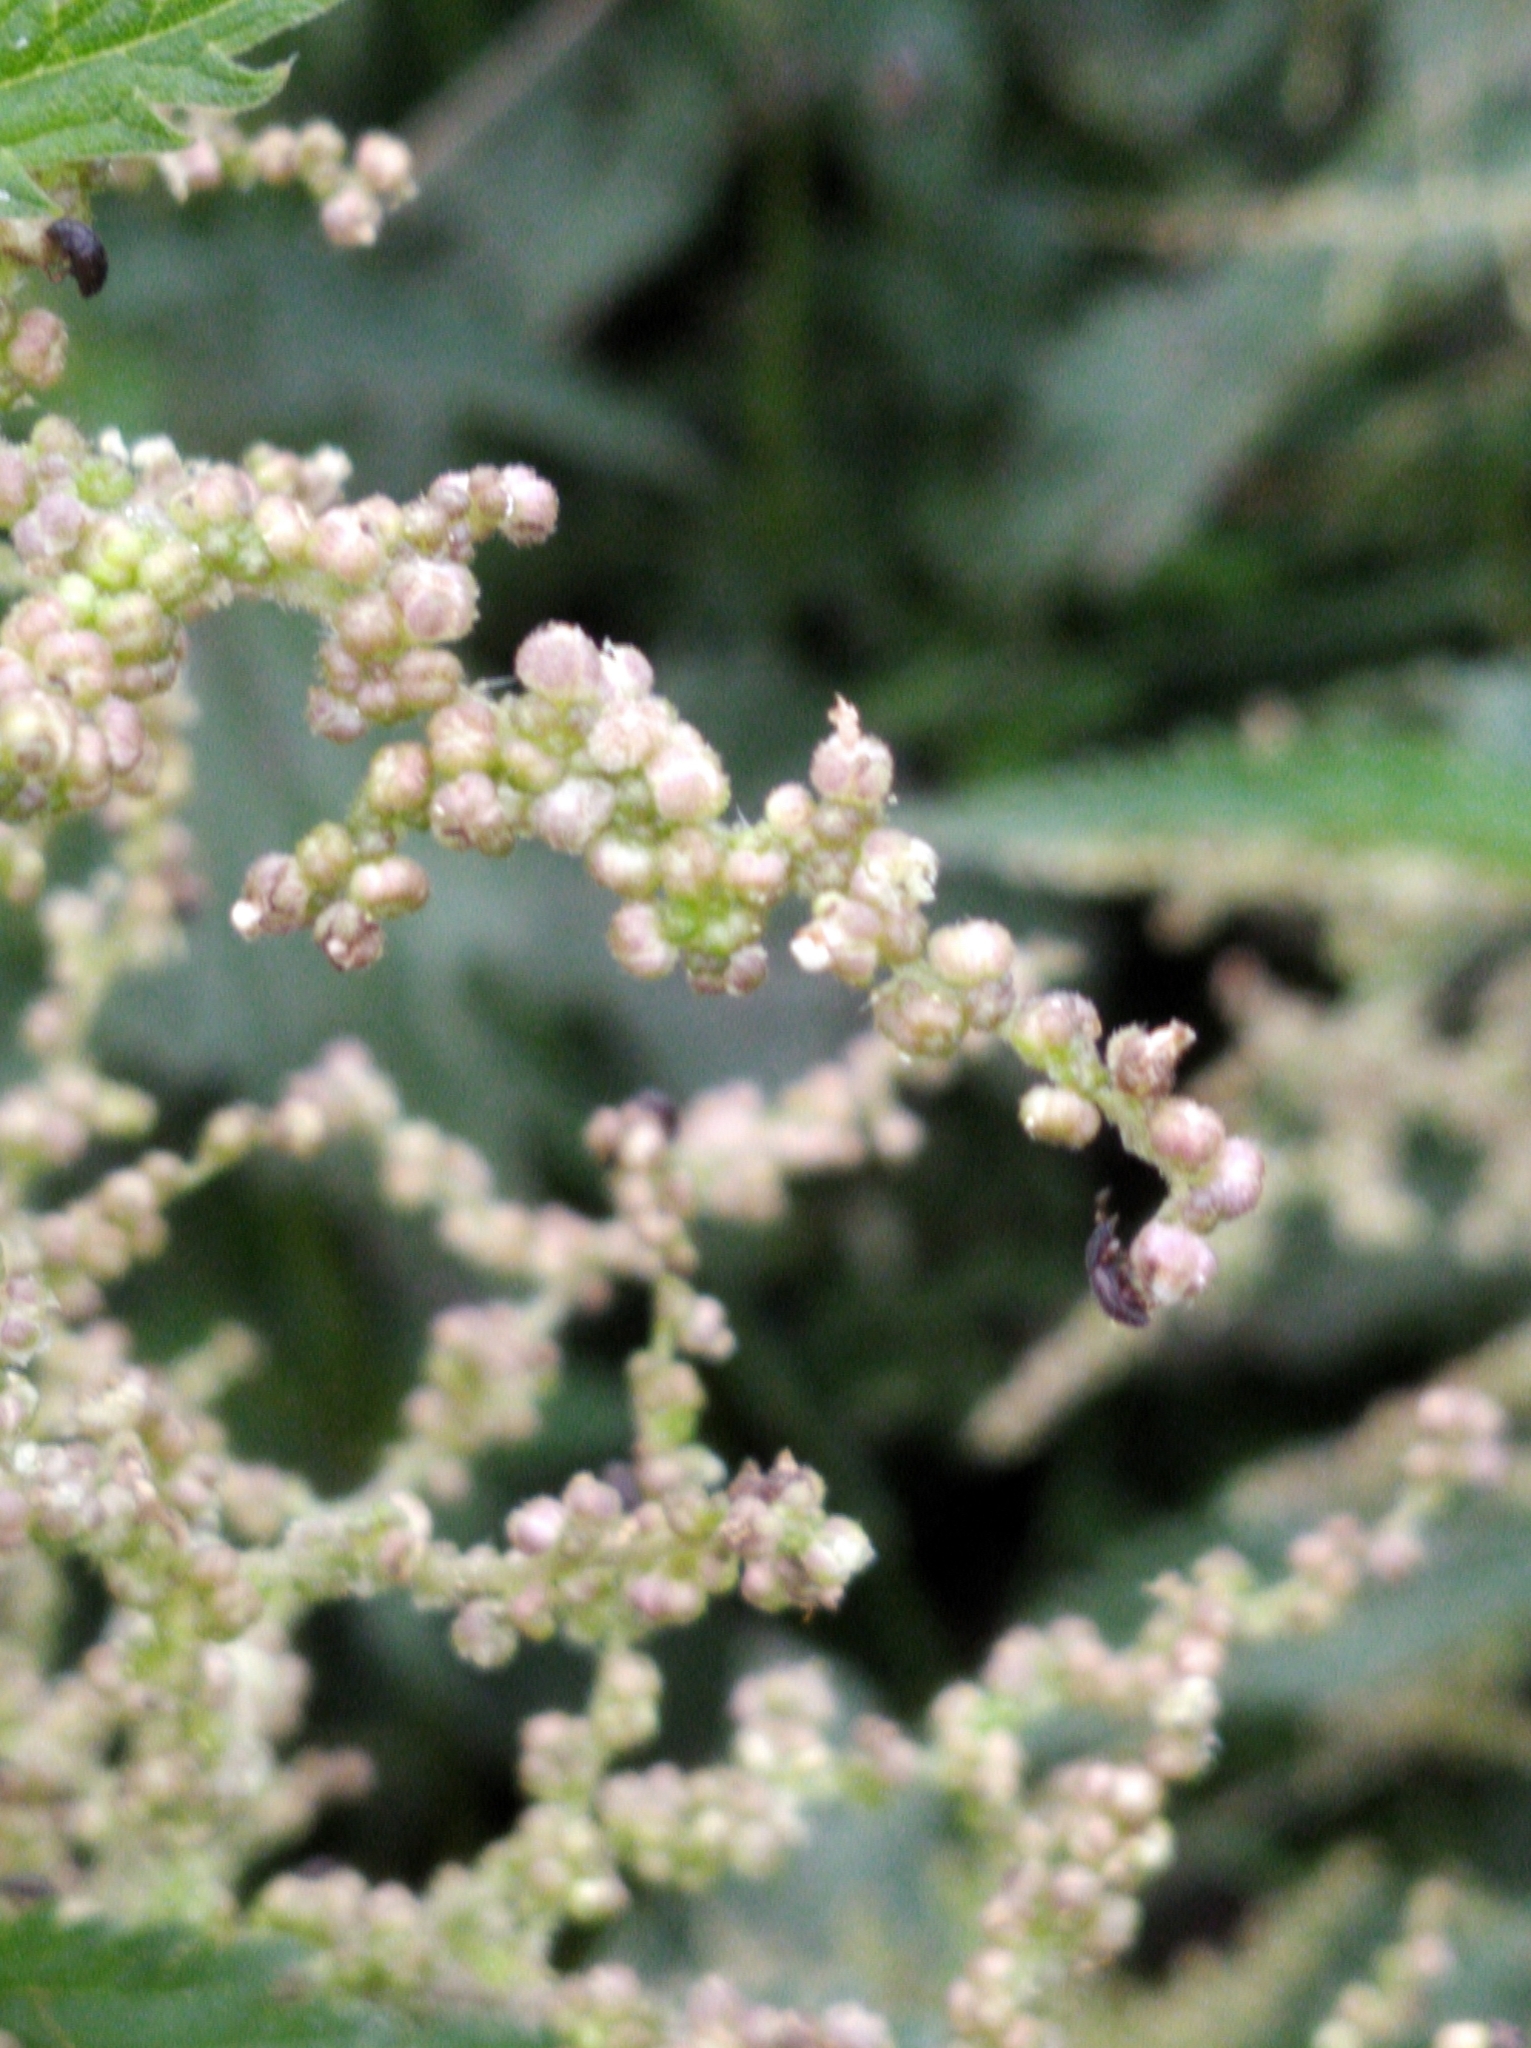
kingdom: Plantae
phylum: Tracheophyta
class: Magnoliopsida
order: Rosales
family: Urticaceae
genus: Urtica
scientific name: Urtica dioica
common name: Common nettle
